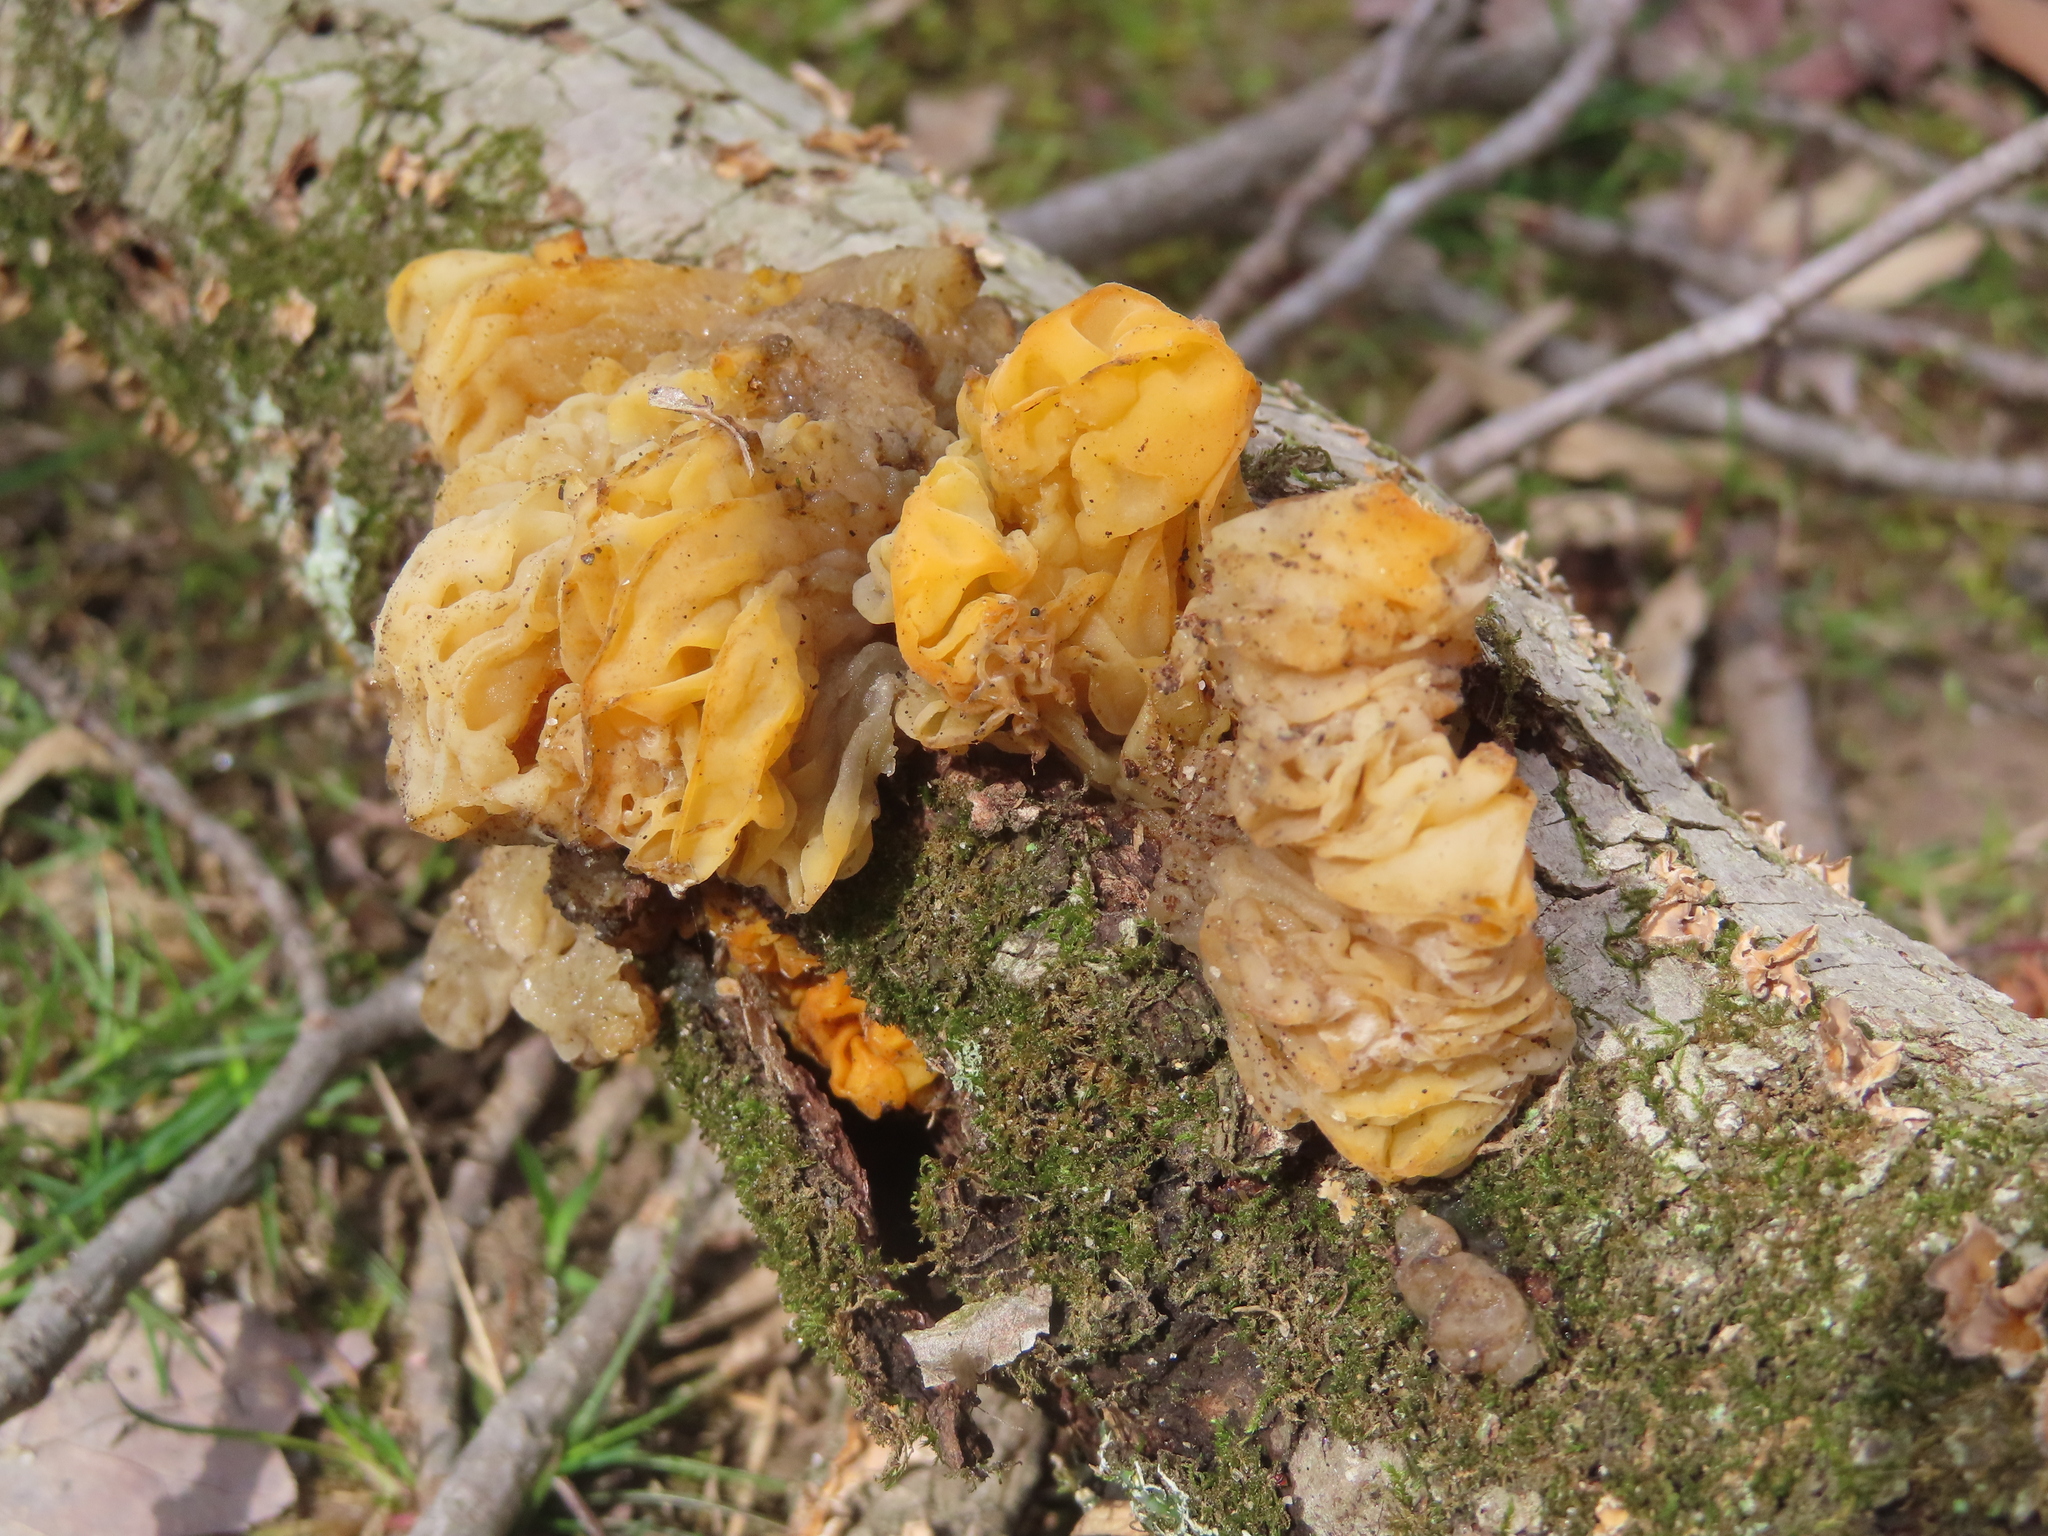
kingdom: Fungi
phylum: Basidiomycota
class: Tremellomycetes
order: Tremellales
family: Tremellaceae
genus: Tremella
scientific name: Tremella mesenterica
